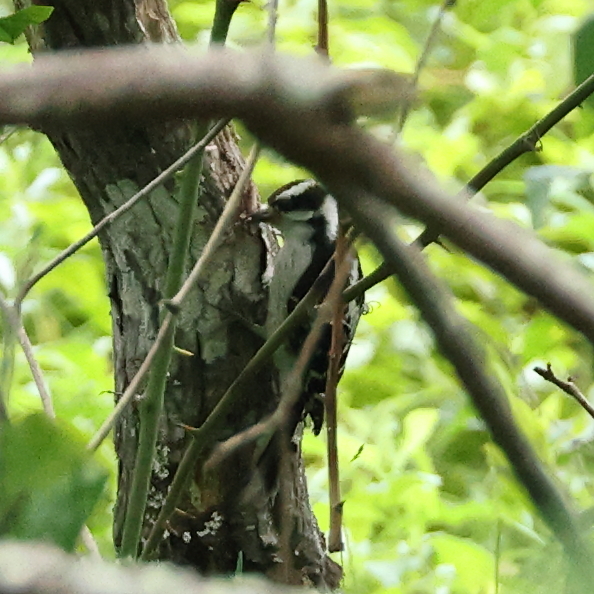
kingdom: Animalia
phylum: Chordata
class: Aves
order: Piciformes
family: Picidae
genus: Dryobates
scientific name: Dryobates pubescens
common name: Downy woodpecker
